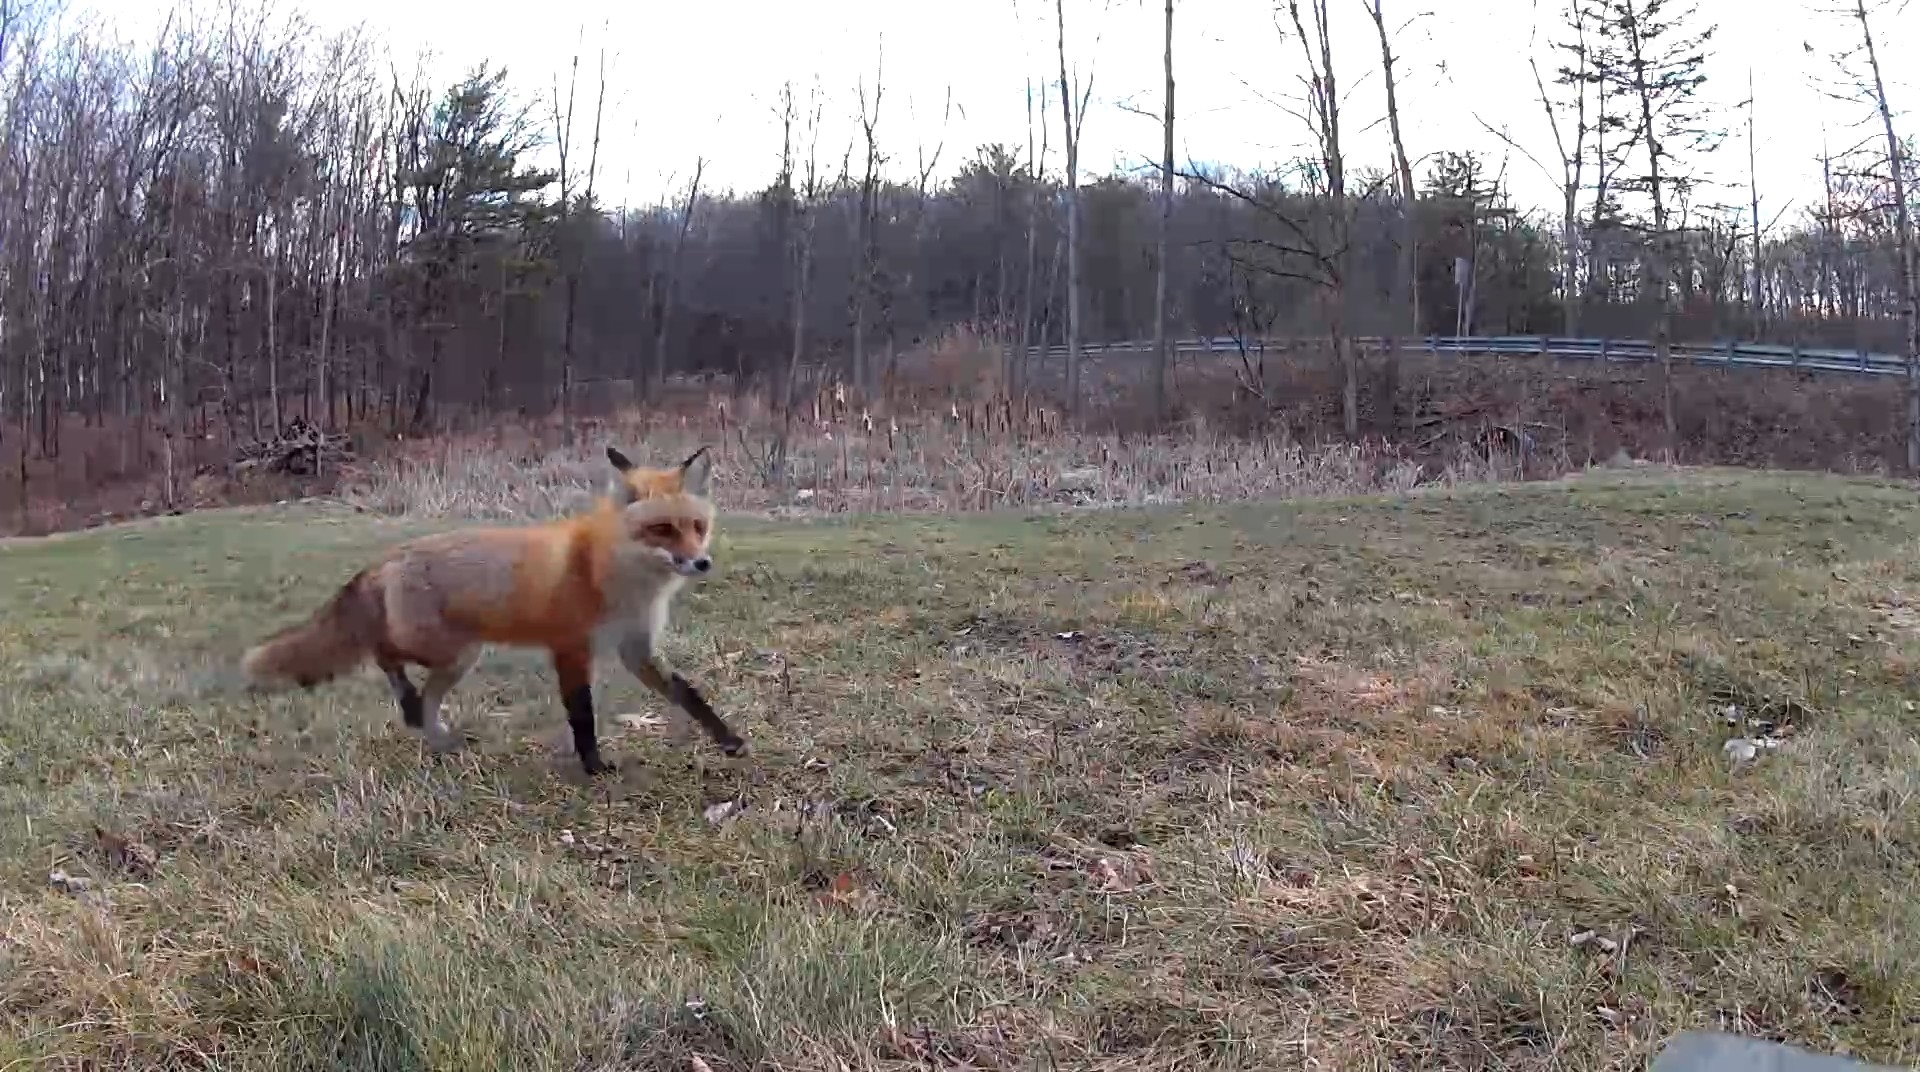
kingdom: Animalia
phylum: Chordata
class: Mammalia
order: Carnivora
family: Canidae
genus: Vulpes
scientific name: Vulpes vulpes
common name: Red fox
